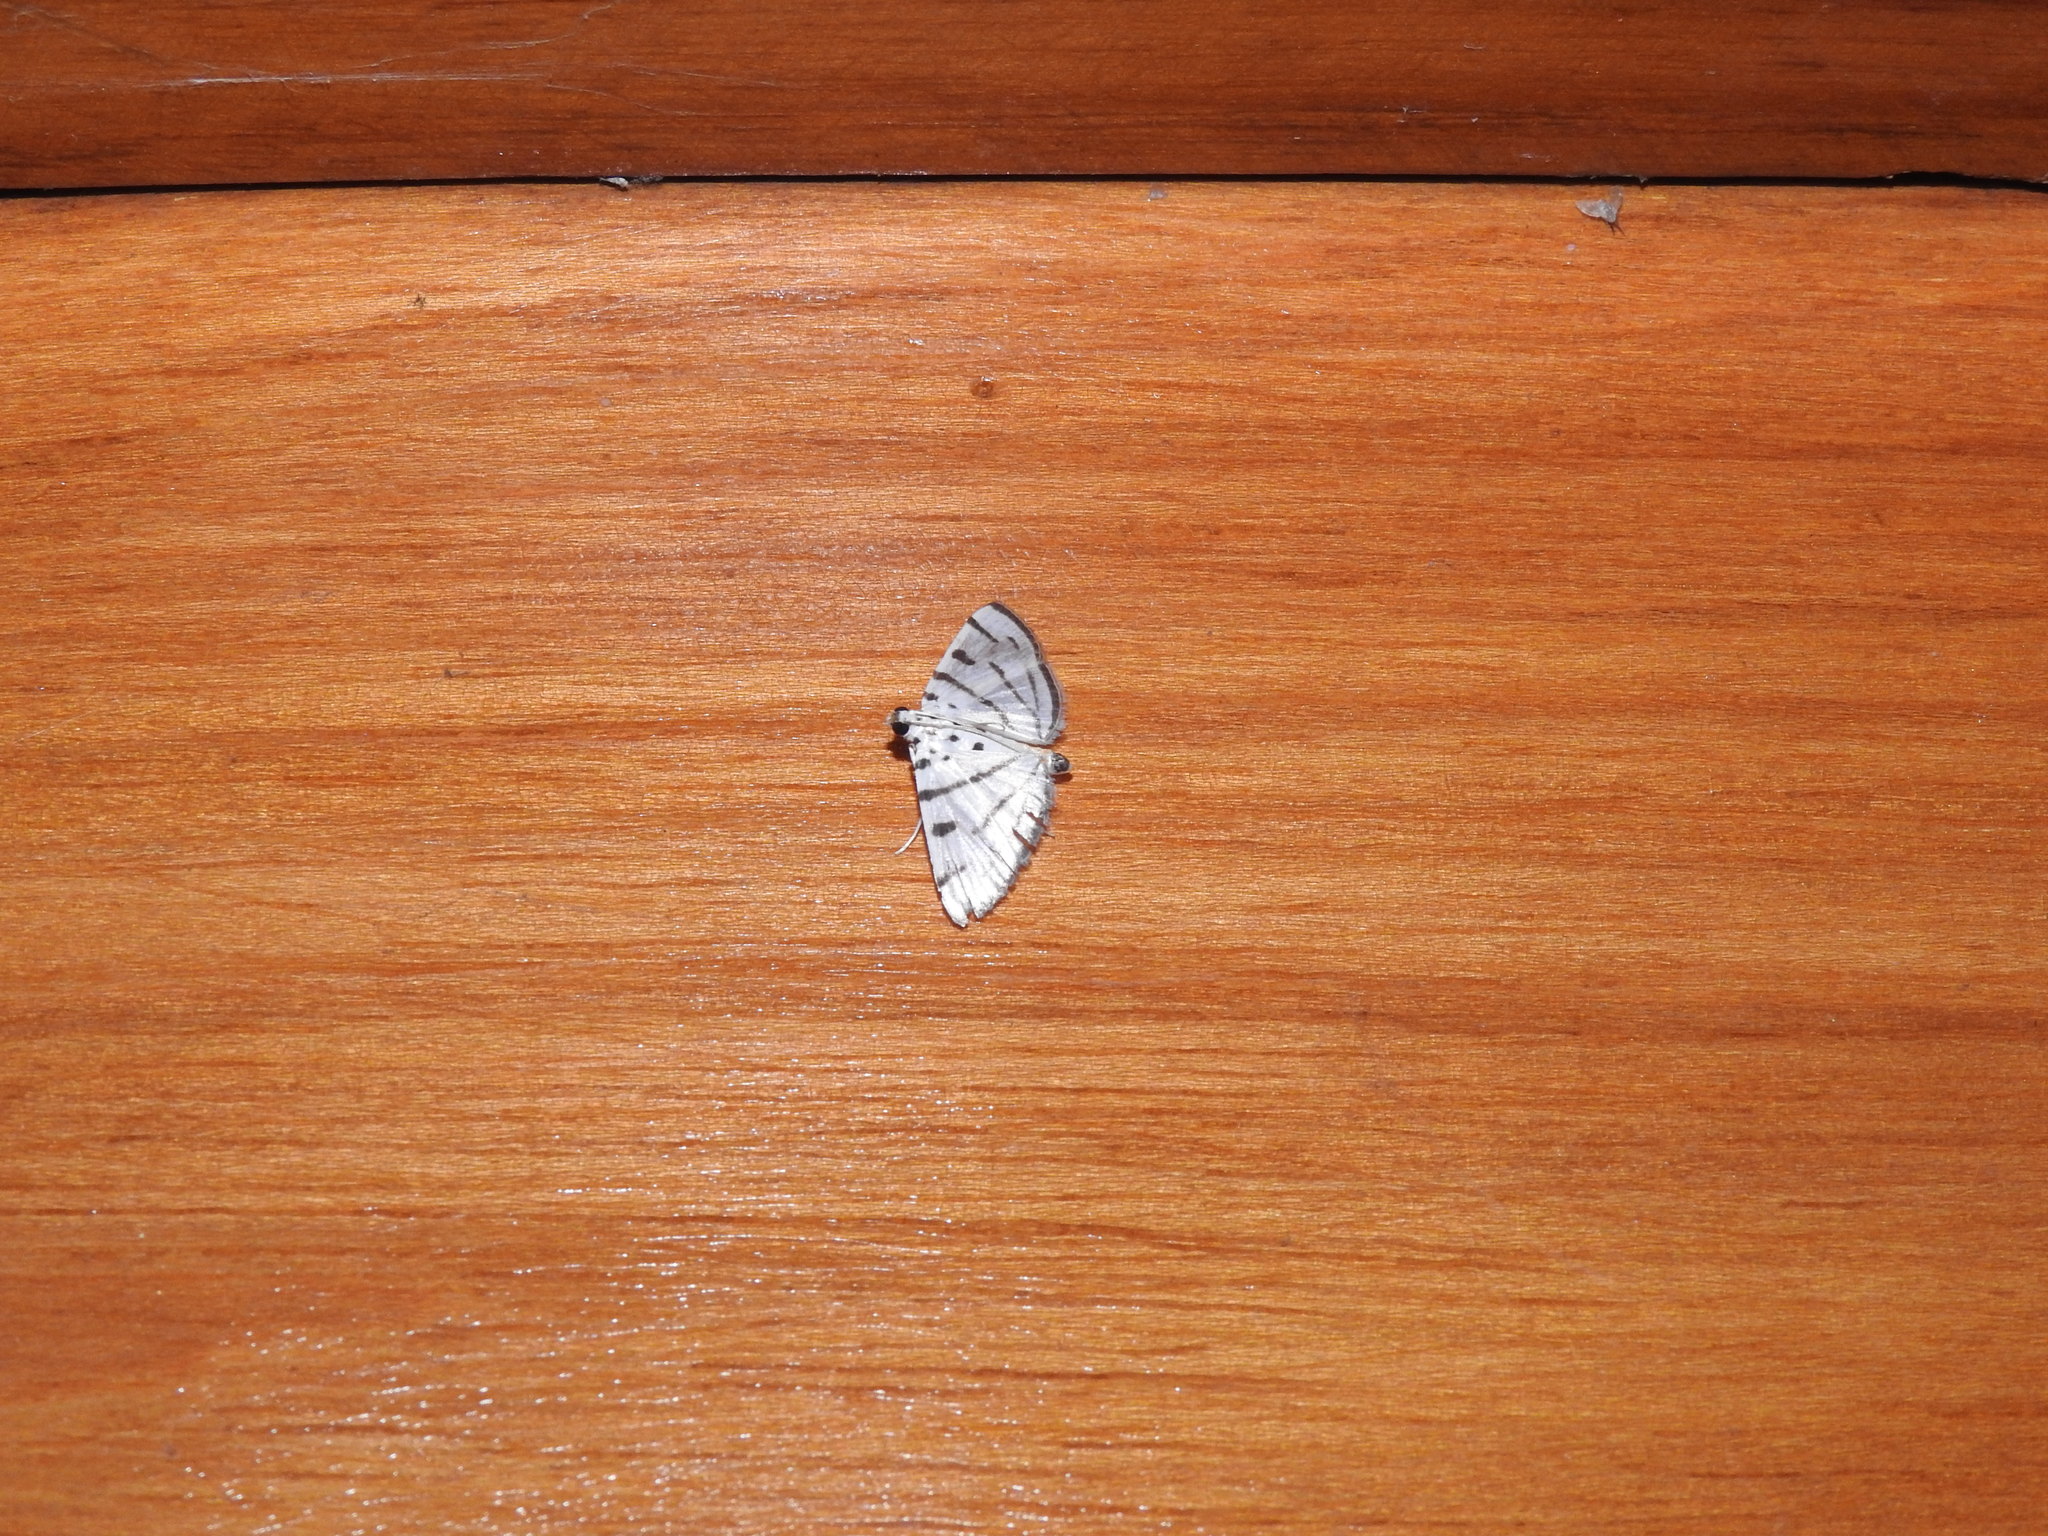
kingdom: Animalia
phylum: Arthropoda
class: Insecta
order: Lepidoptera
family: Crambidae
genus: Pycnarmon
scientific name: Pycnarmon virgatalis
